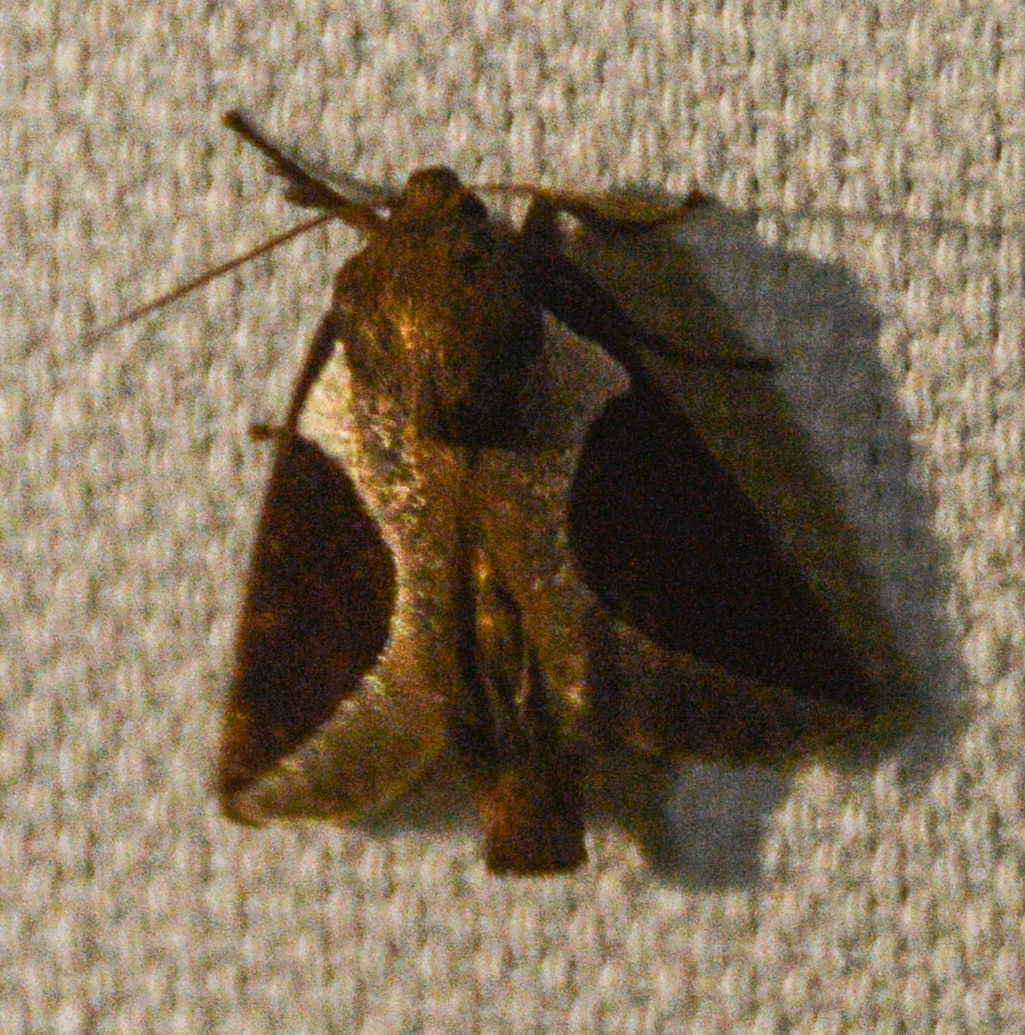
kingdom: Animalia
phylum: Arthropoda
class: Insecta
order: Lepidoptera
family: Limacodidae
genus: Prolimacodes
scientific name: Prolimacodes badia
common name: Skiff moth
